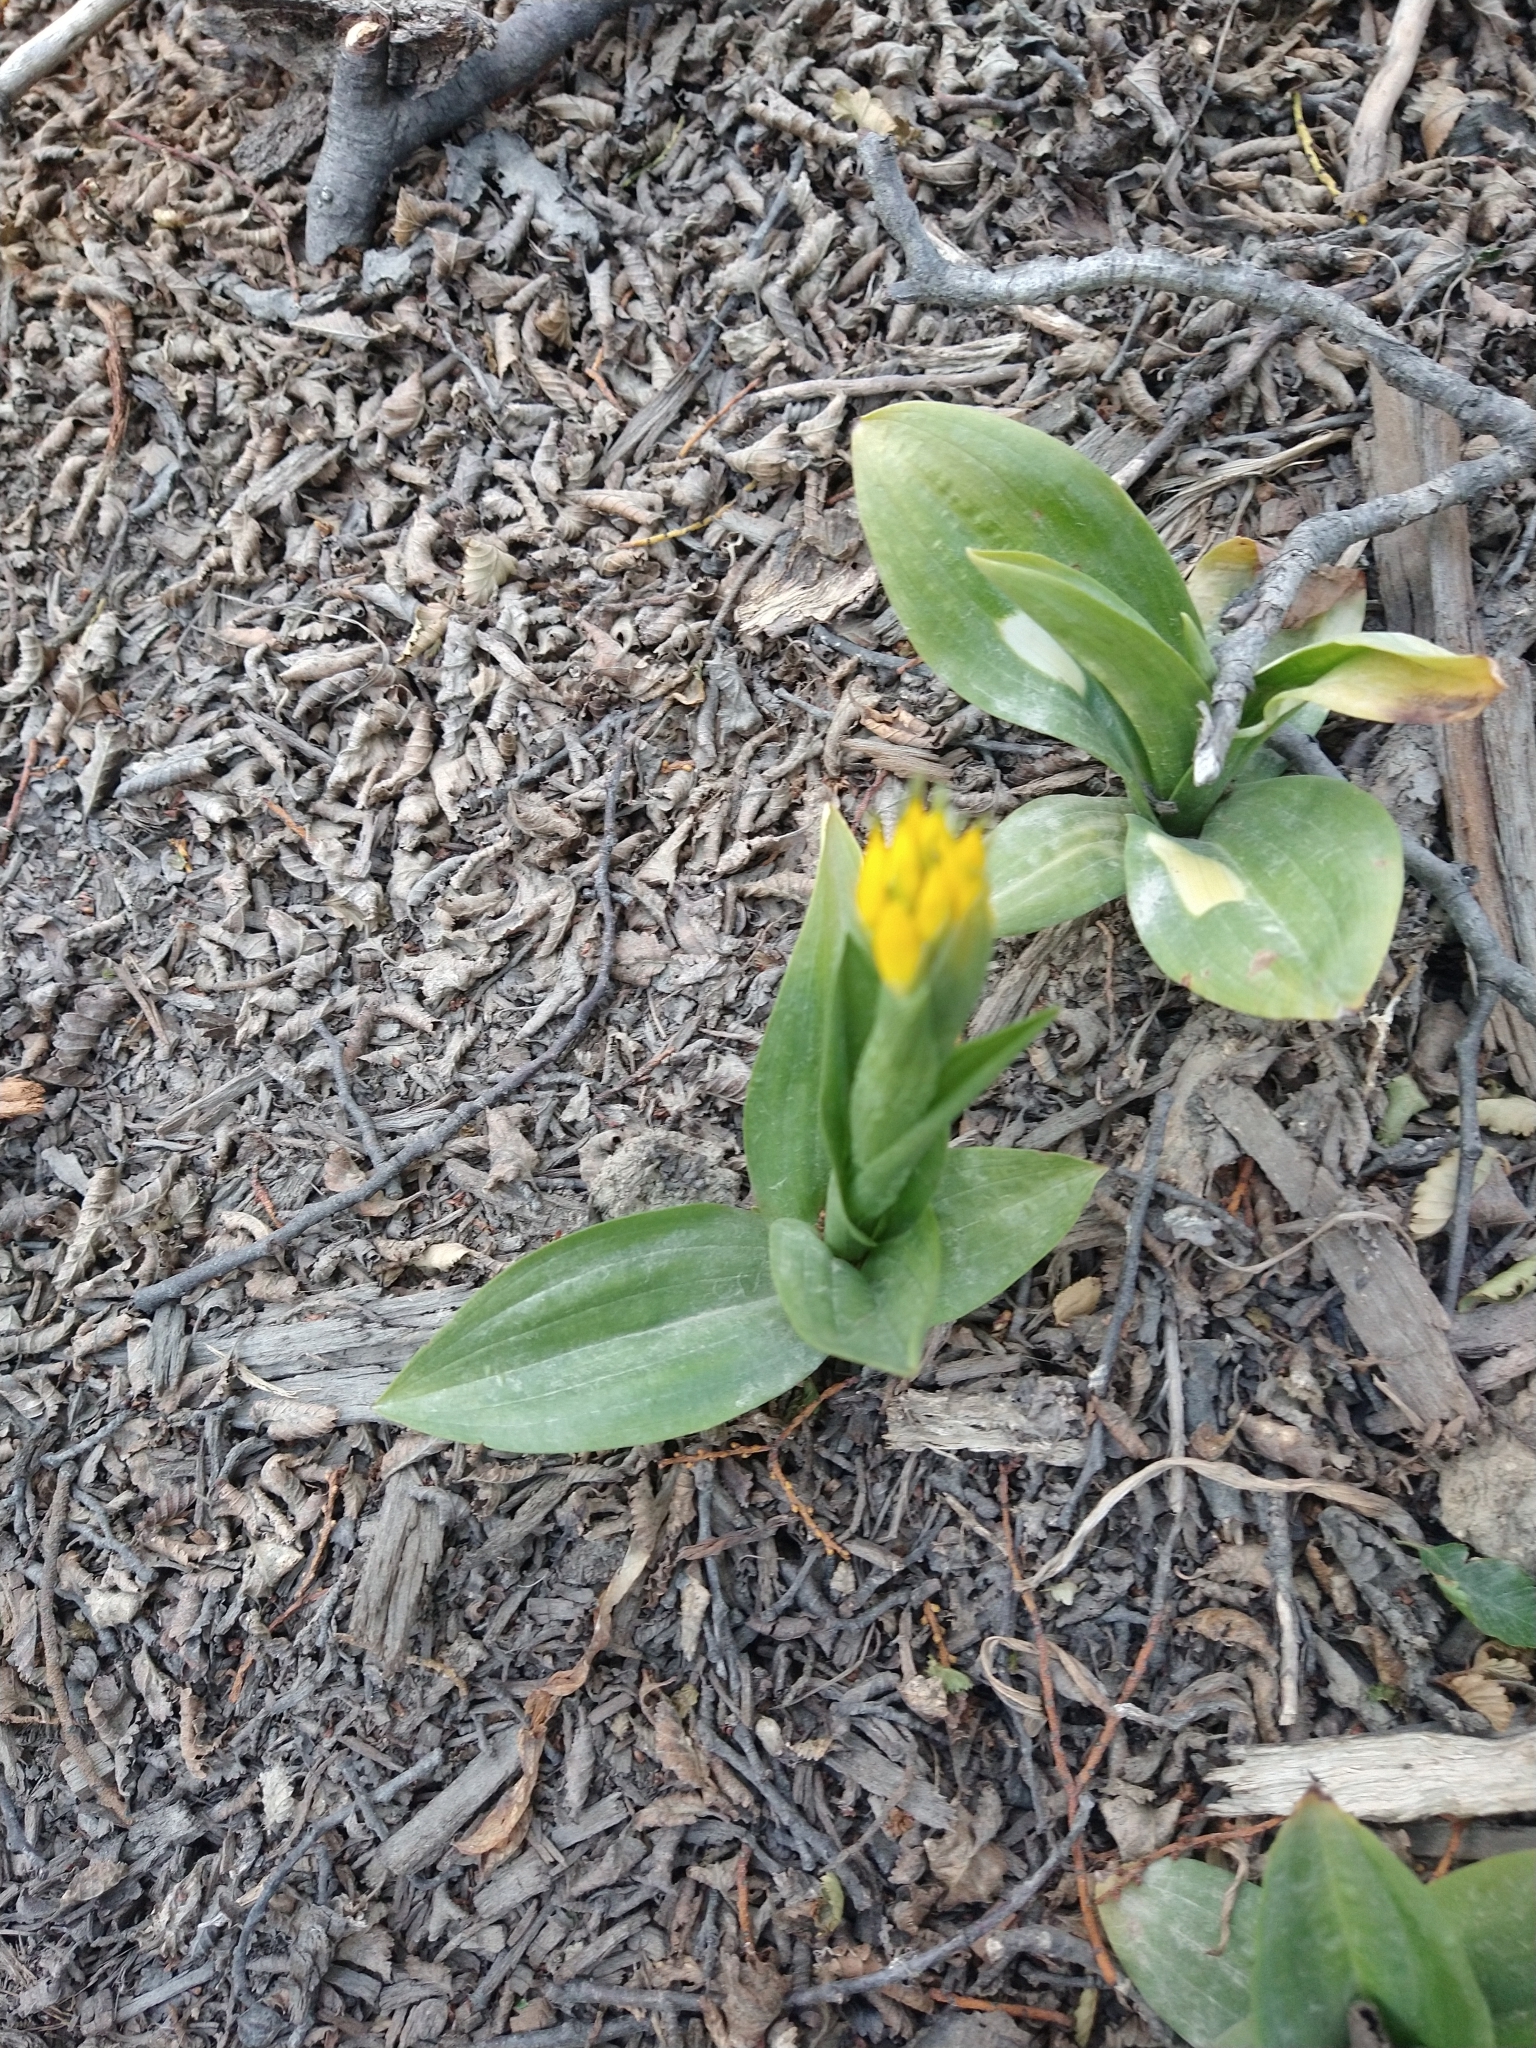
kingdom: Plantae
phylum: Tracheophyta
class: Liliopsida
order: Asparagales
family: Orchidaceae
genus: Gavilea
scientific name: Gavilea lutea
